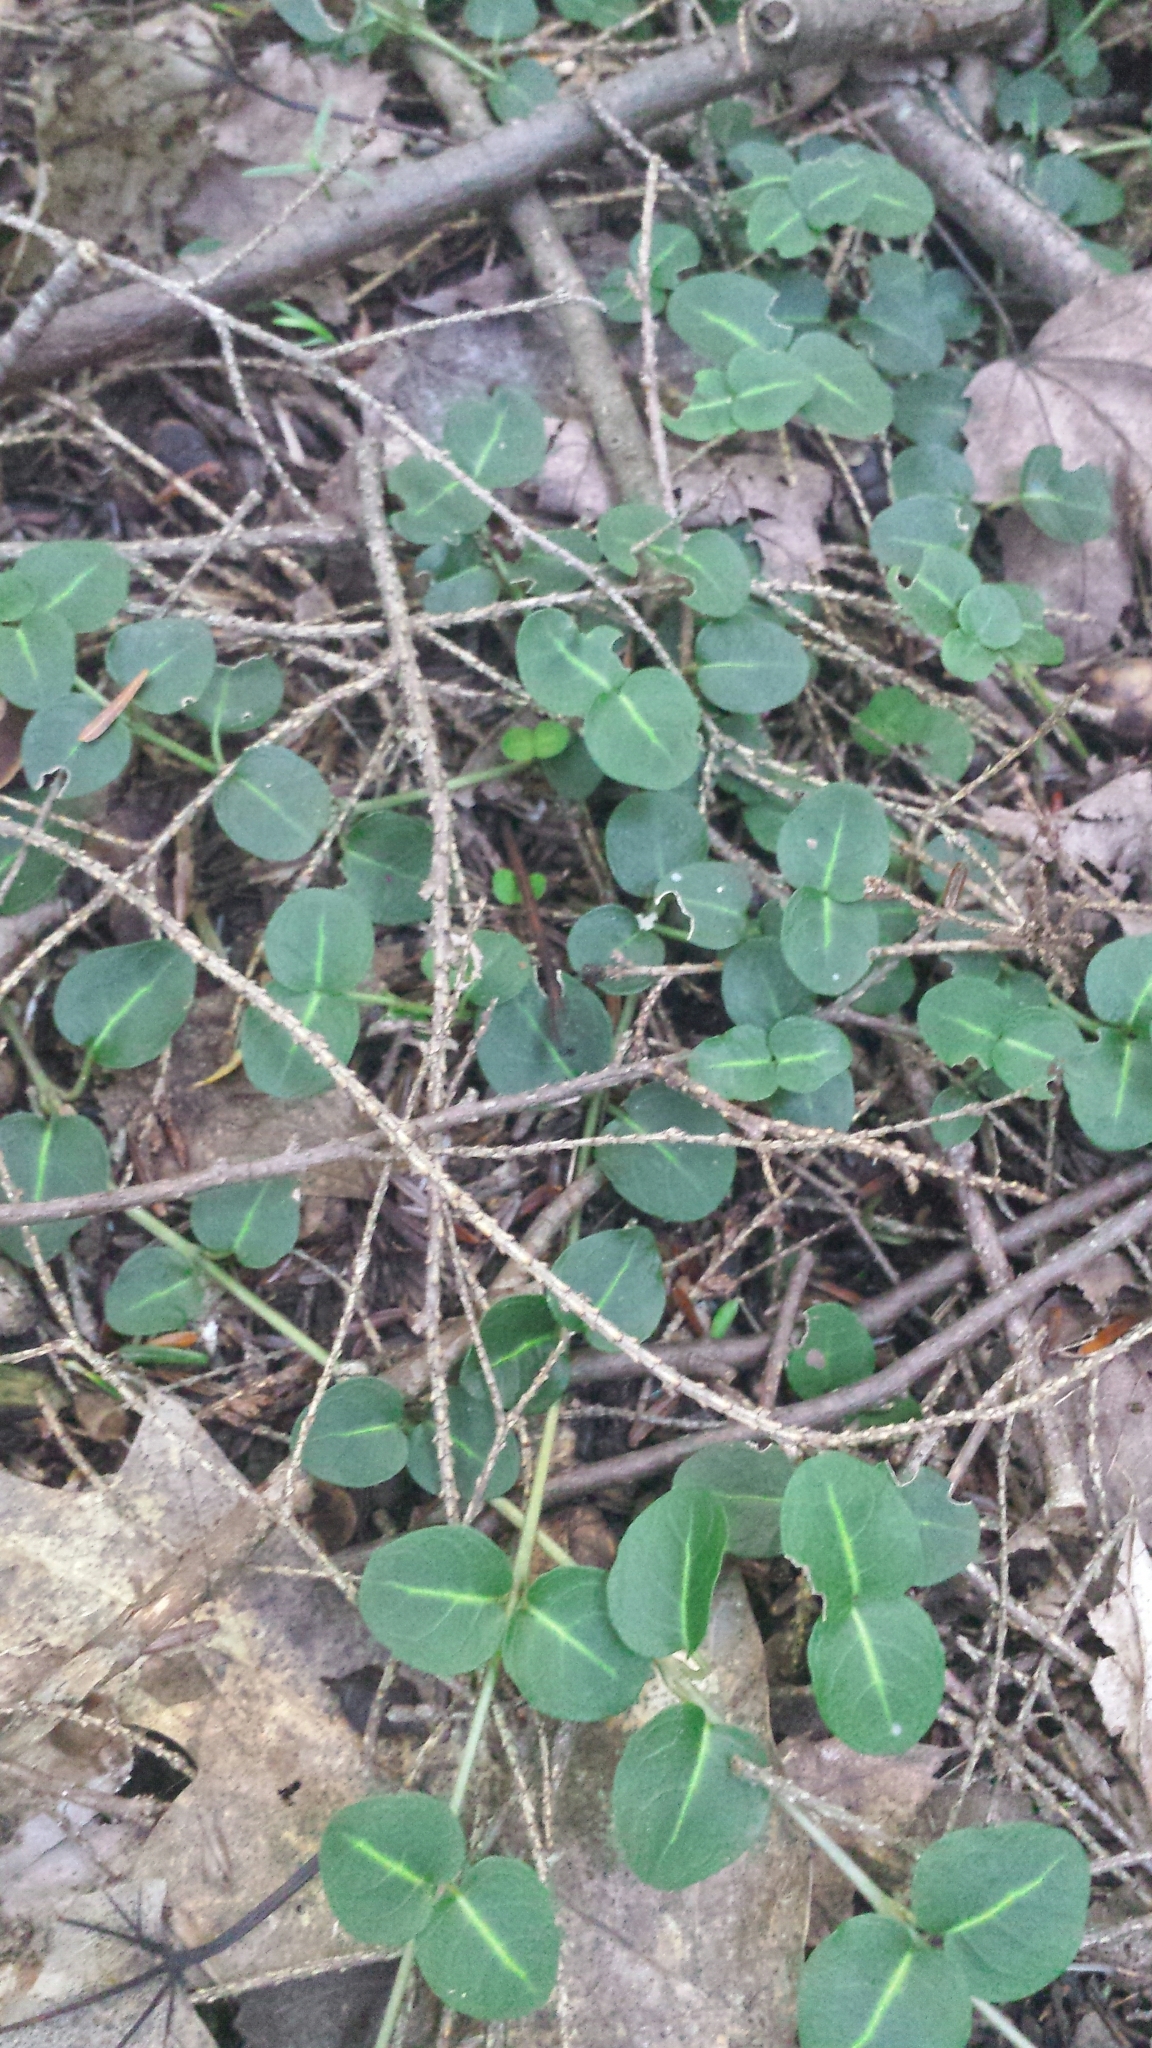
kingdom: Plantae
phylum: Tracheophyta
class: Magnoliopsida
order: Gentianales
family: Rubiaceae
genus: Mitchella
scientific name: Mitchella repens
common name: Partridge-berry
